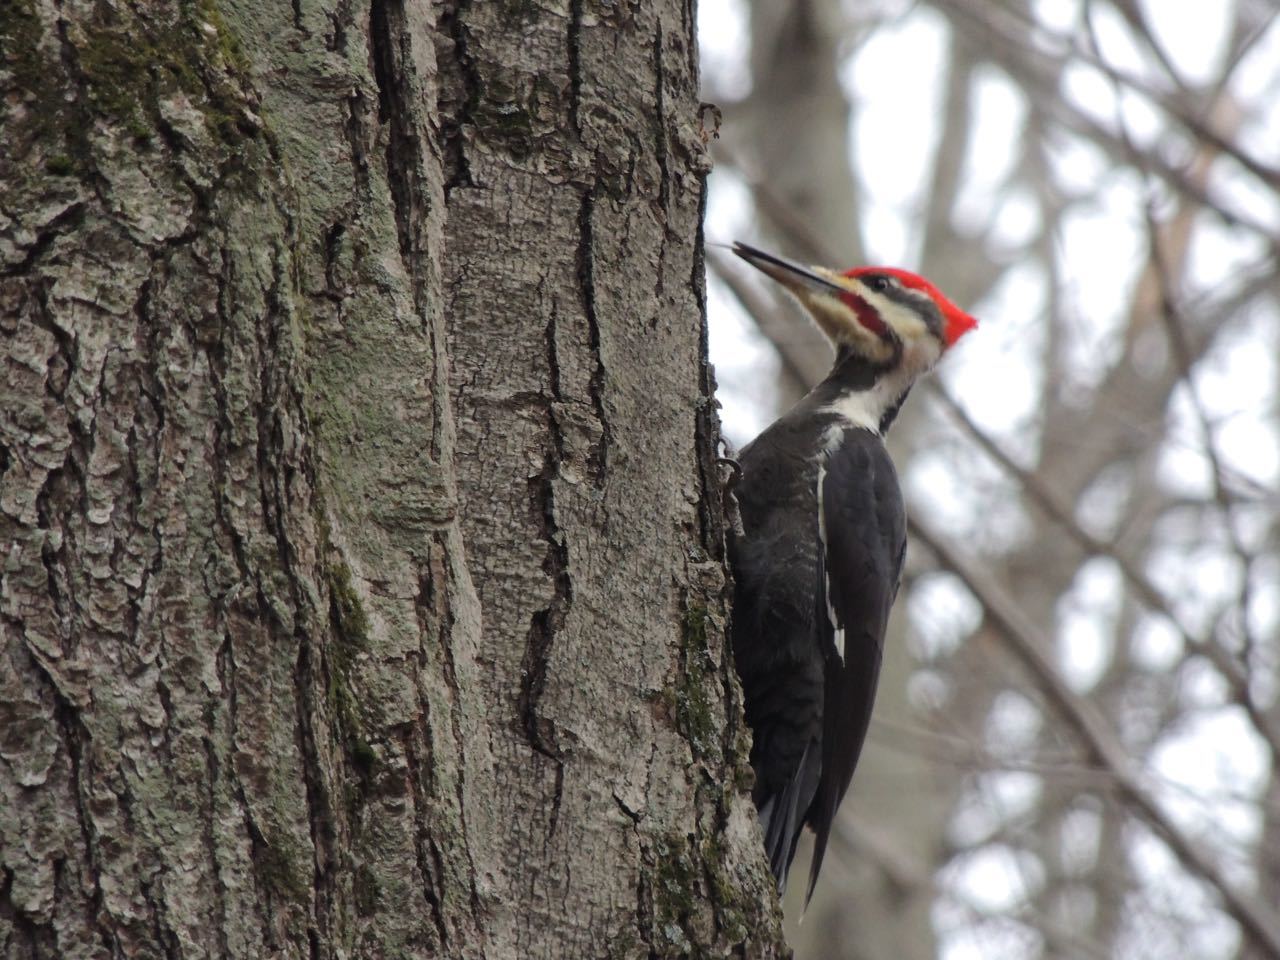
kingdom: Animalia
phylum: Chordata
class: Aves
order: Piciformes
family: Picidae
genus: Dryocopus
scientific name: Dryocopus pileatus
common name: Pileated woodpecker
